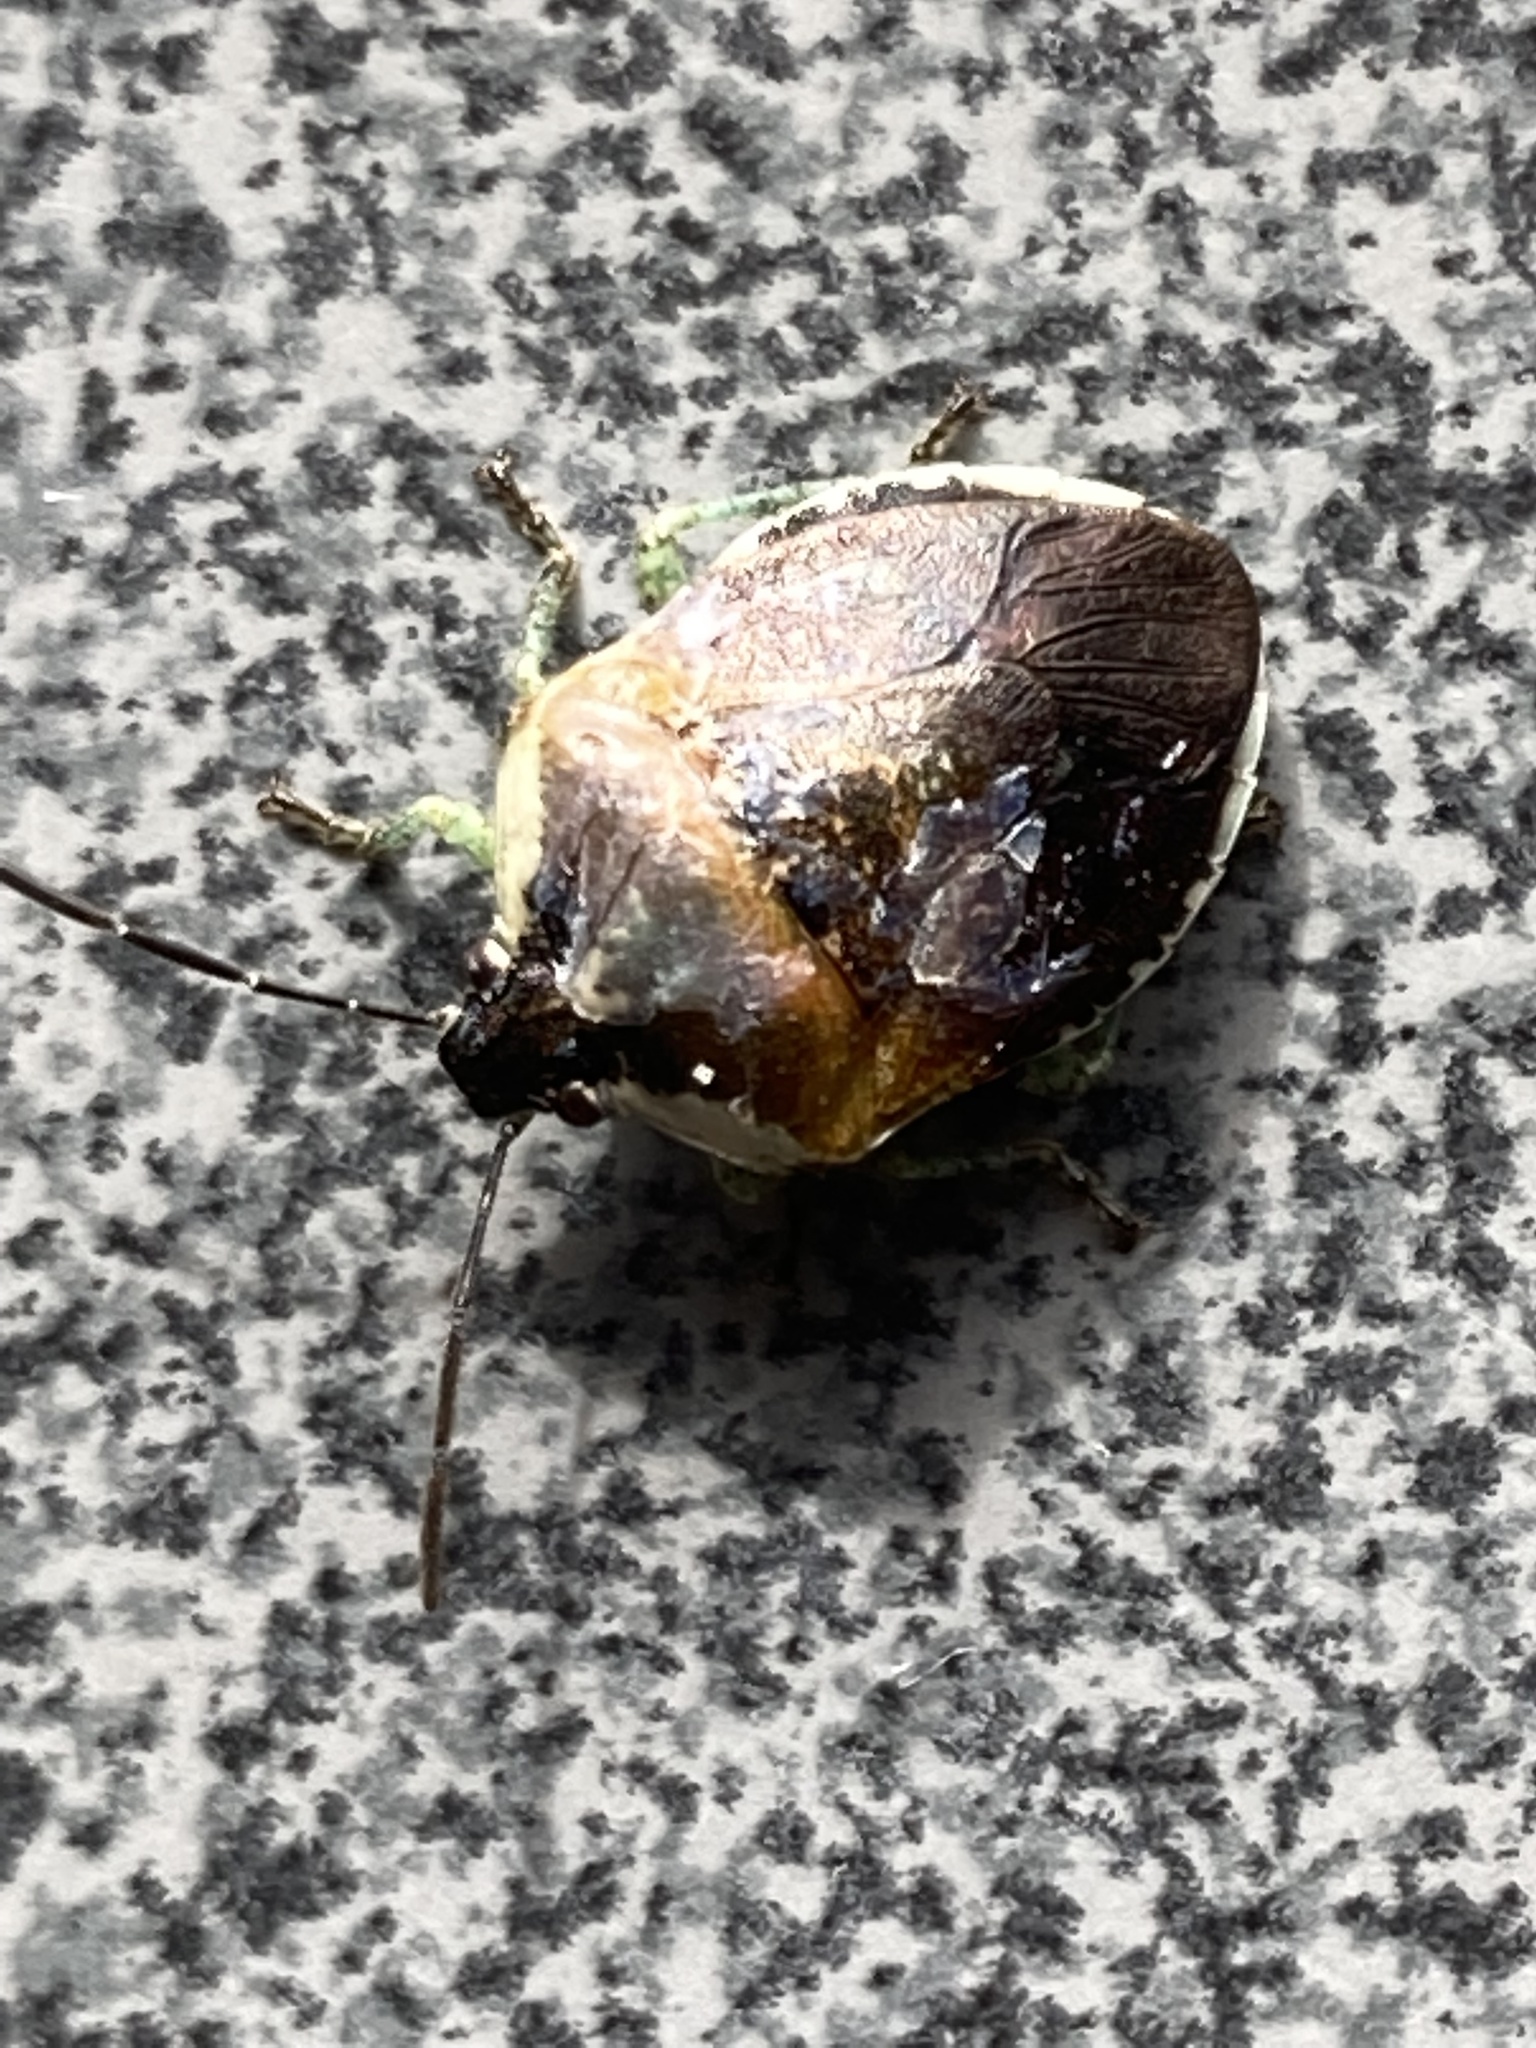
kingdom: Animalia
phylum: Arthropoda
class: Insecta
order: Hemiptera
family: Pentatomidae
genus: Monteithiella
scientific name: Monteithiella
